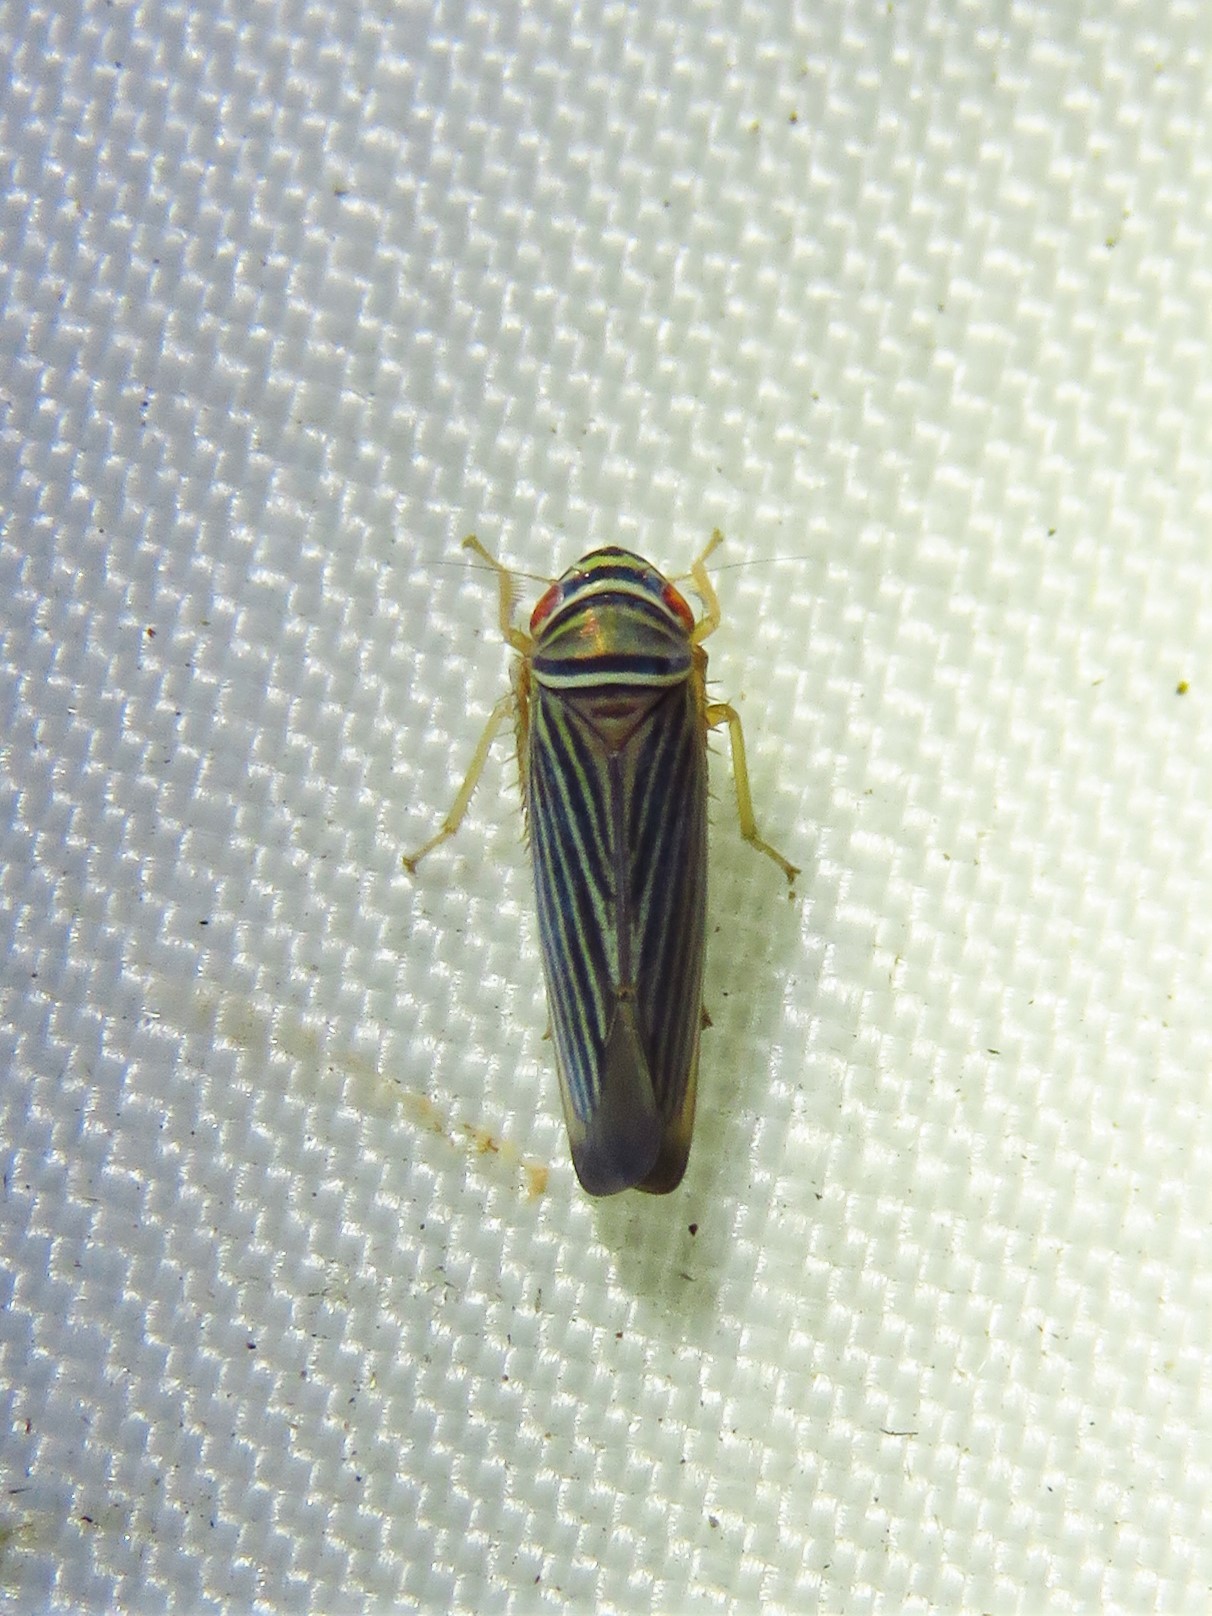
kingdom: Animalia
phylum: Arthropoda
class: Insecta
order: Hemiptera
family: Cicadellidae
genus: Tylozygus
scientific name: Tylozygus bifidus
